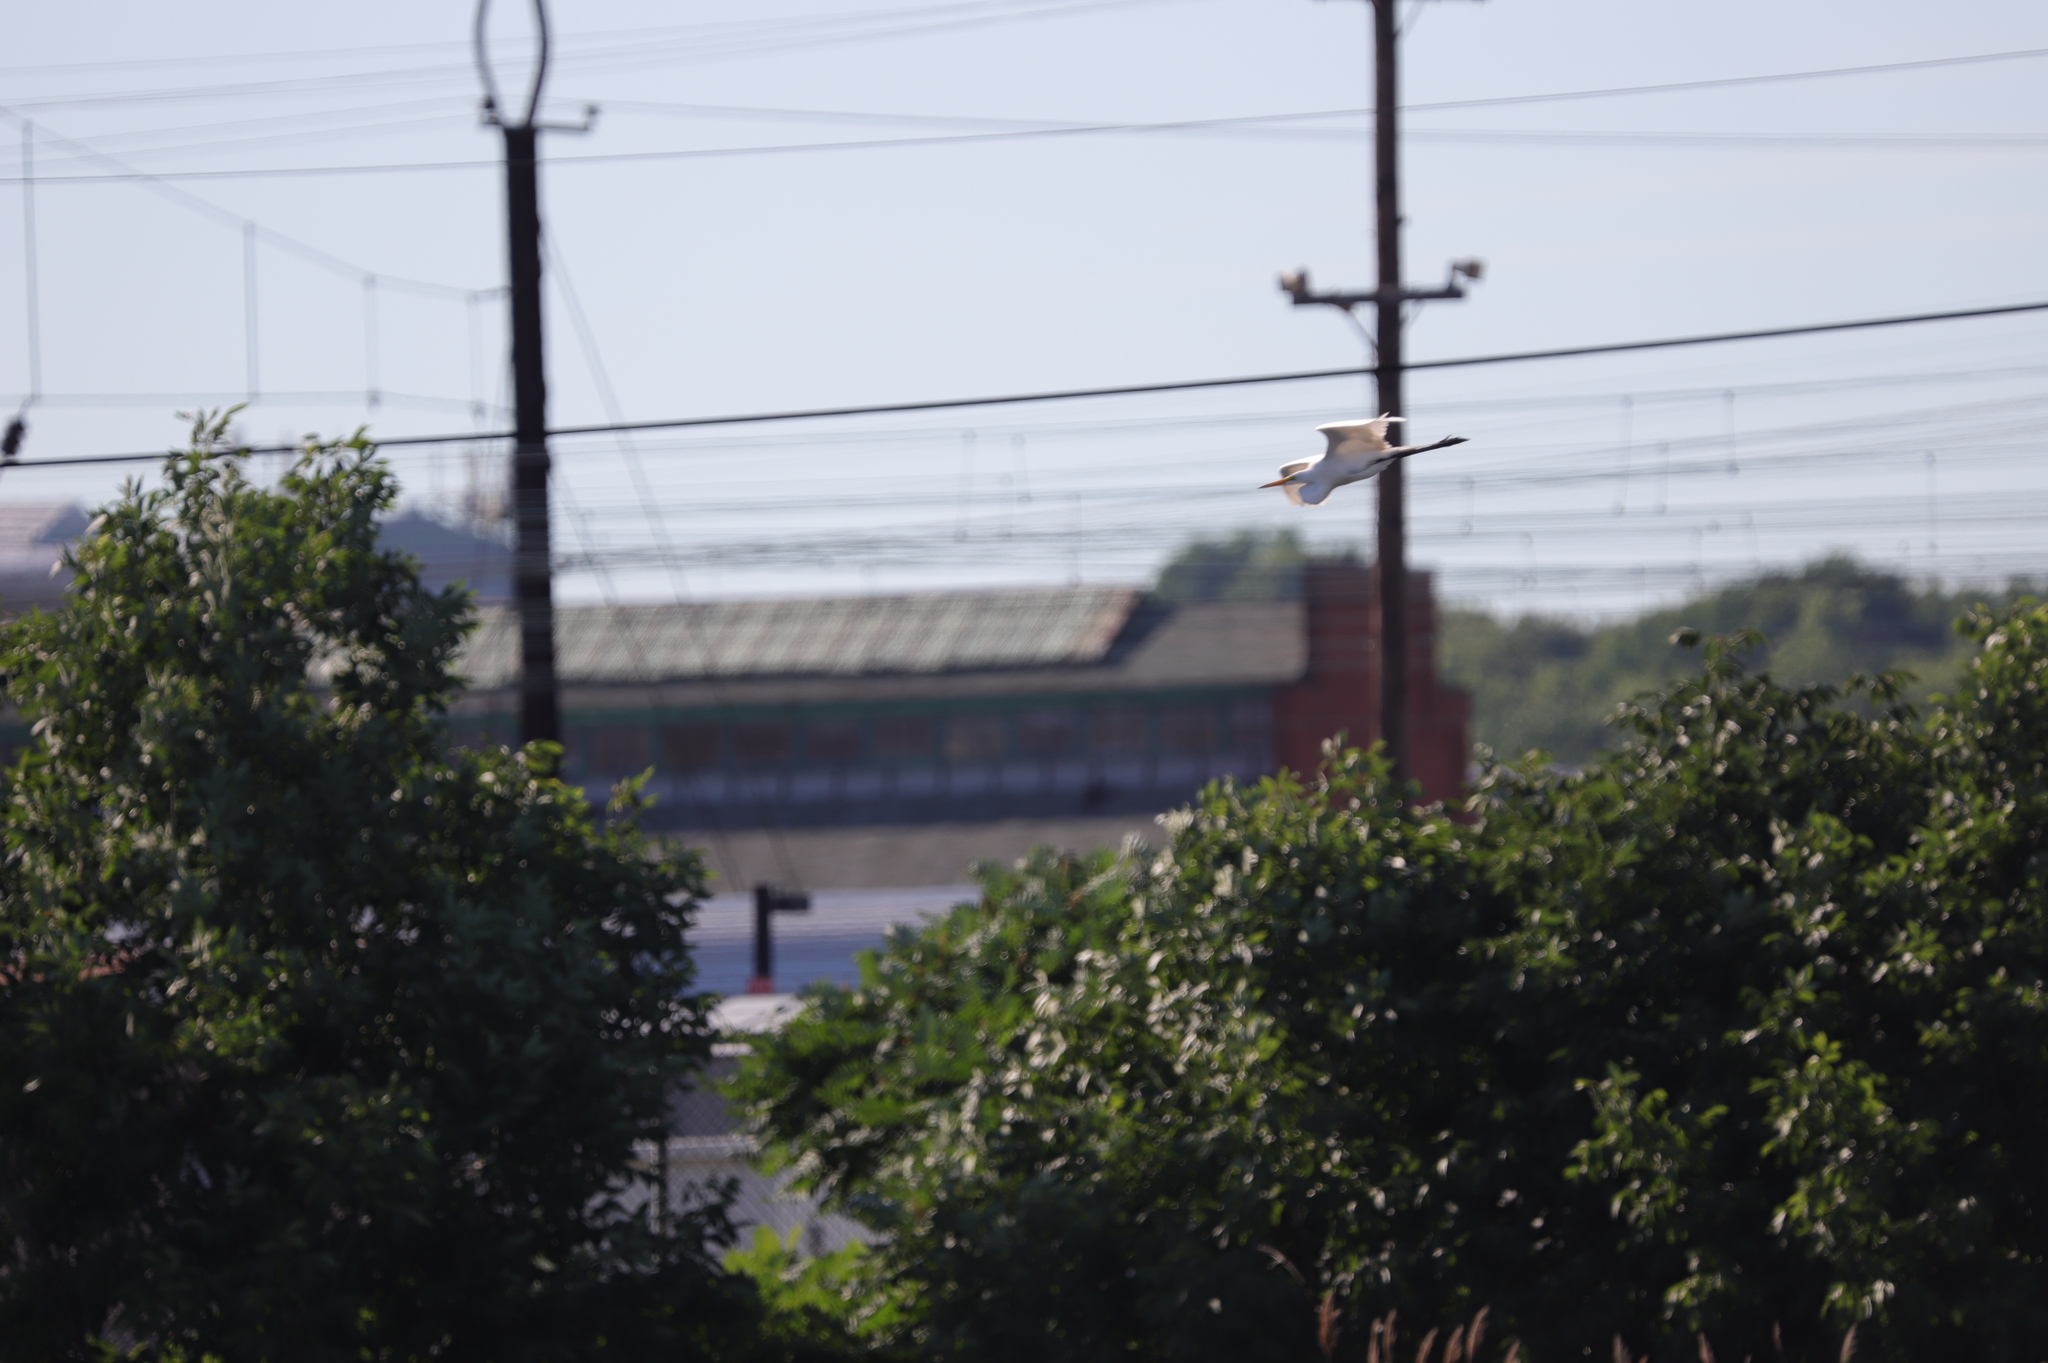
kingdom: Animalia
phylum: Chordata
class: Aves
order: Pelecaniformes
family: Ardeidae
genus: Ardea
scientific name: Ardea alba
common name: Great egret
